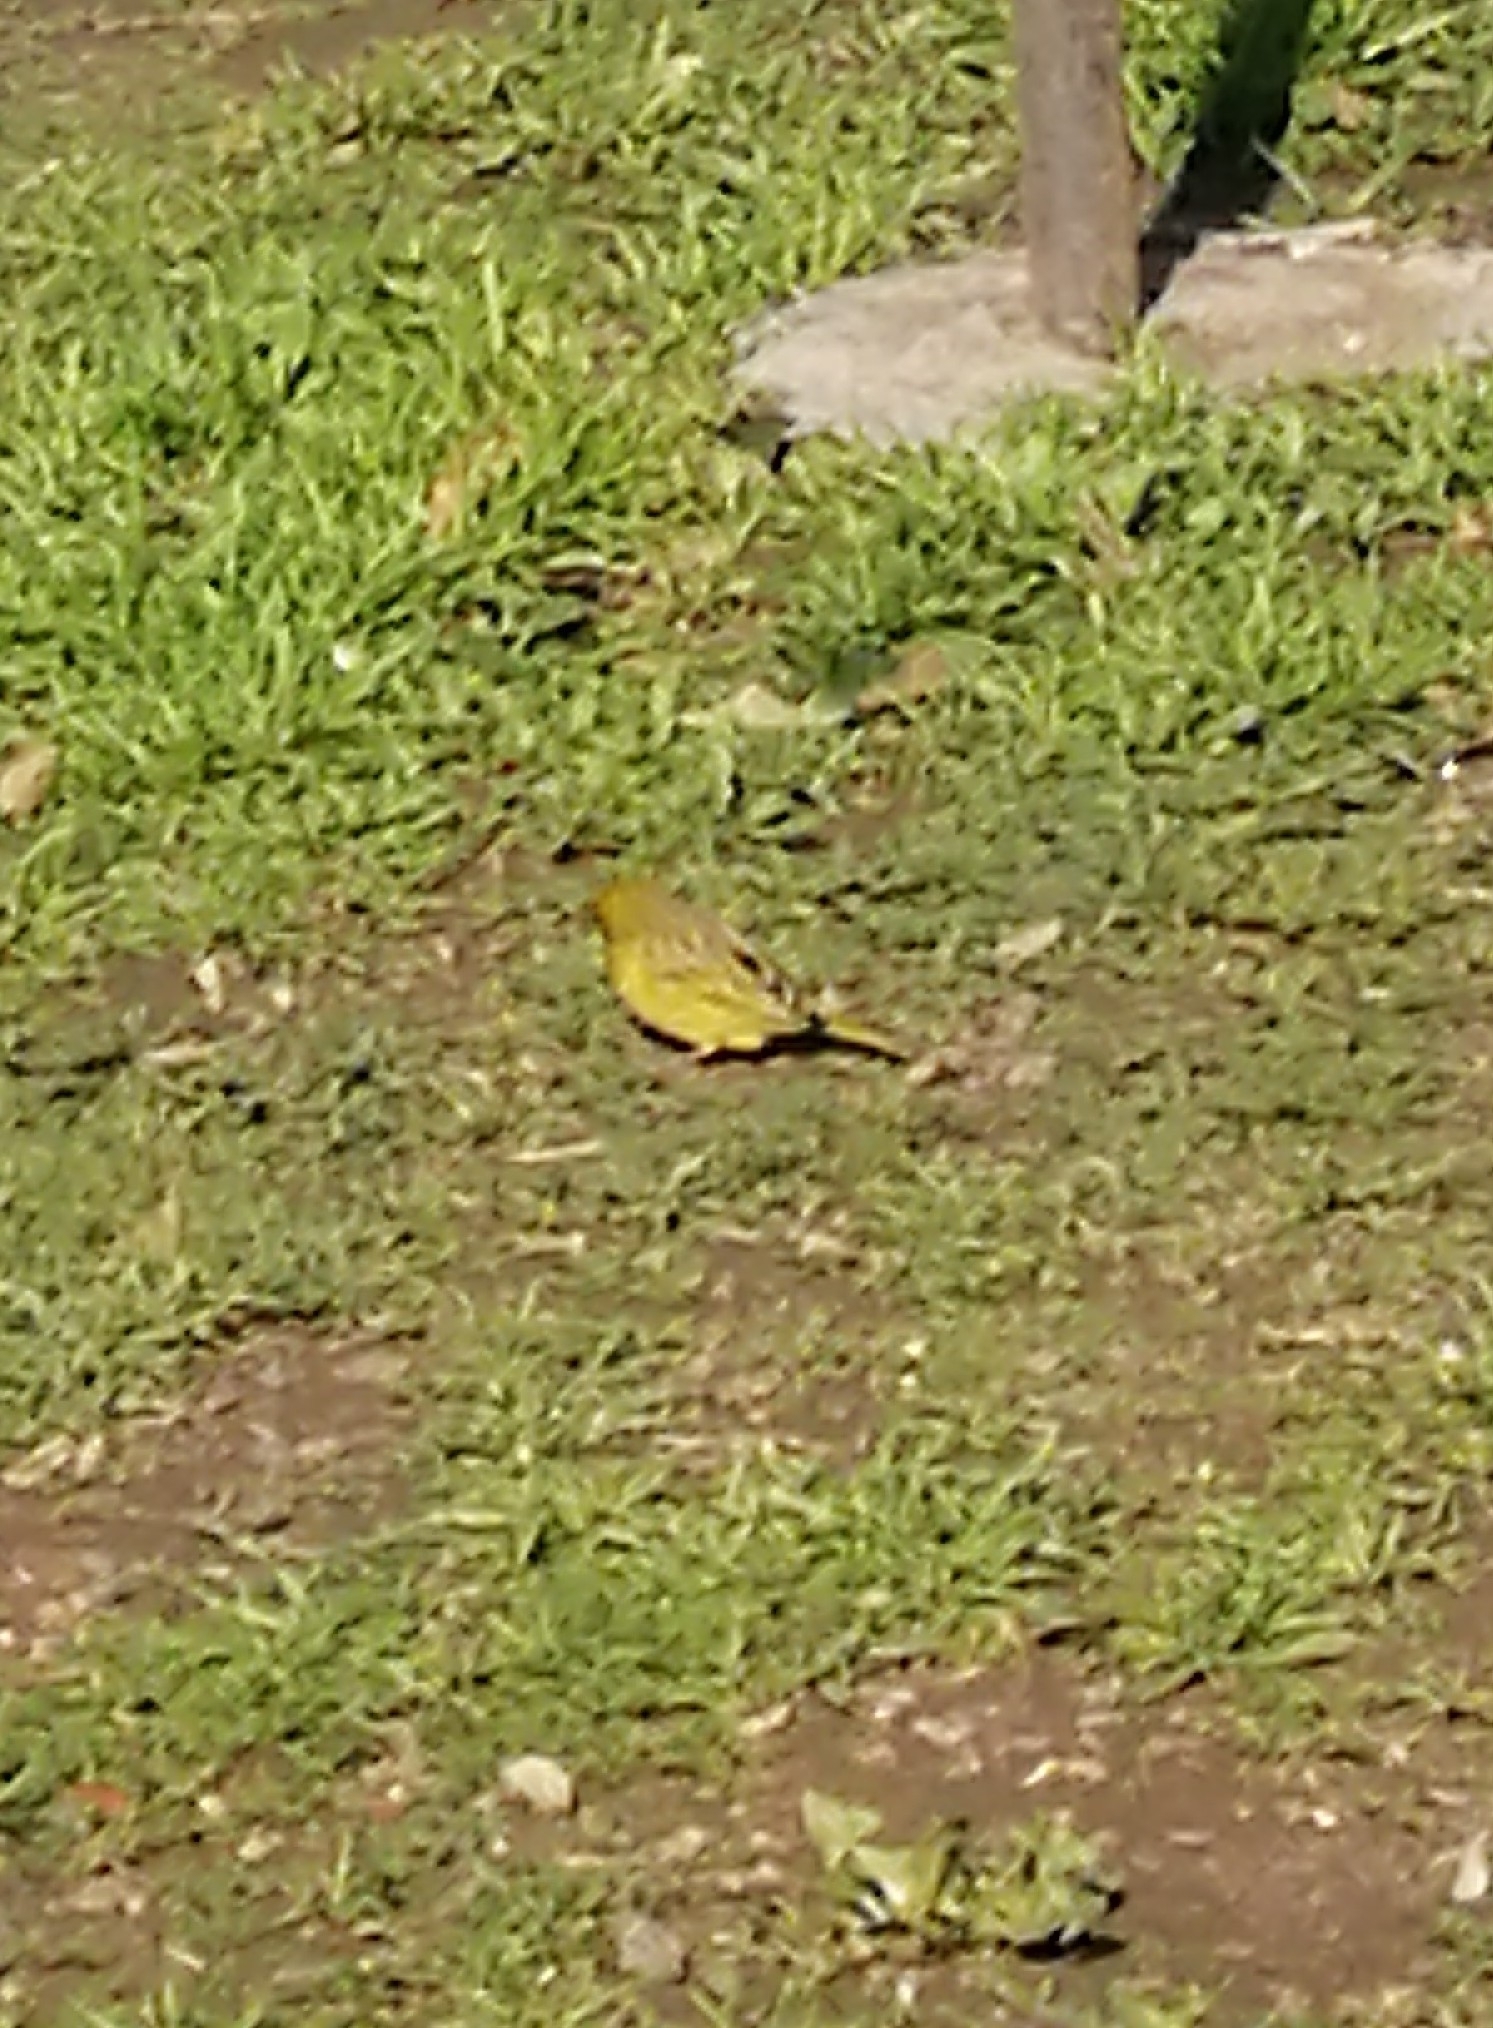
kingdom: Animalia
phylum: Chordata
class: Aves
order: Passeriformes
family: Thraupidae
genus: Sicalis
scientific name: Sicalis flaveola
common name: Saffron finch
